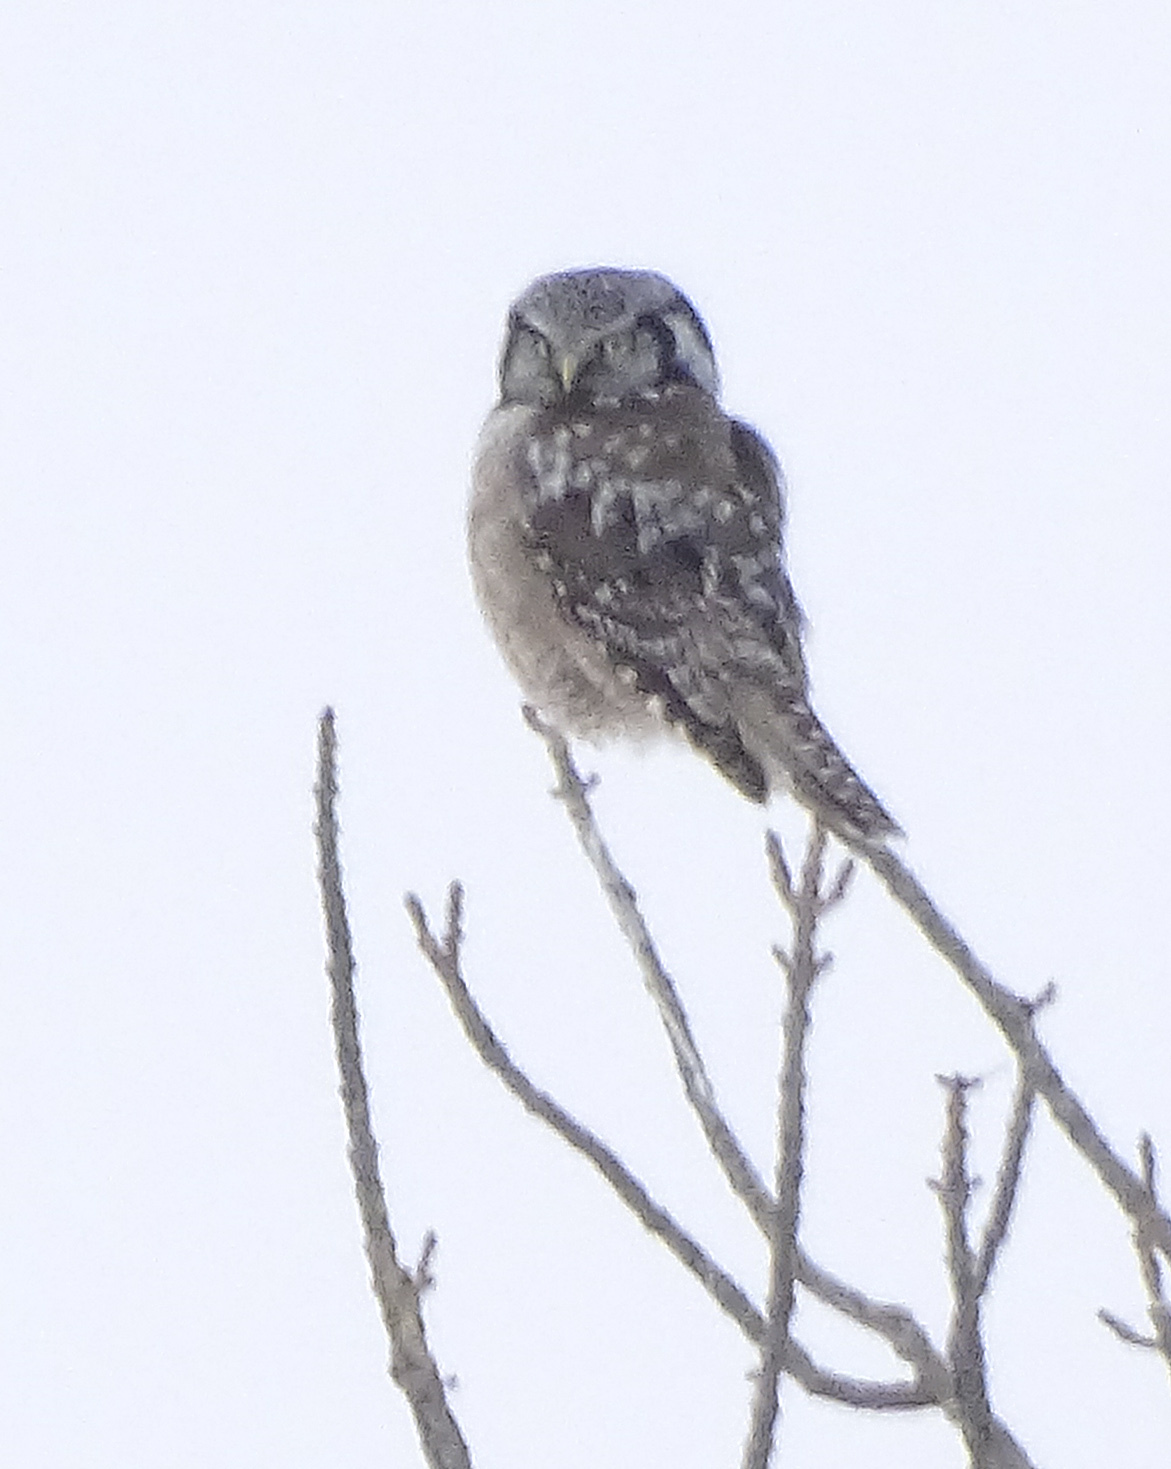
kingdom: Animalia
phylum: Chordata
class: Aves
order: Strigiformes
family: Strigidae
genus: Surnia
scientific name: Surnia ulula
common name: Northern hawk-owl
